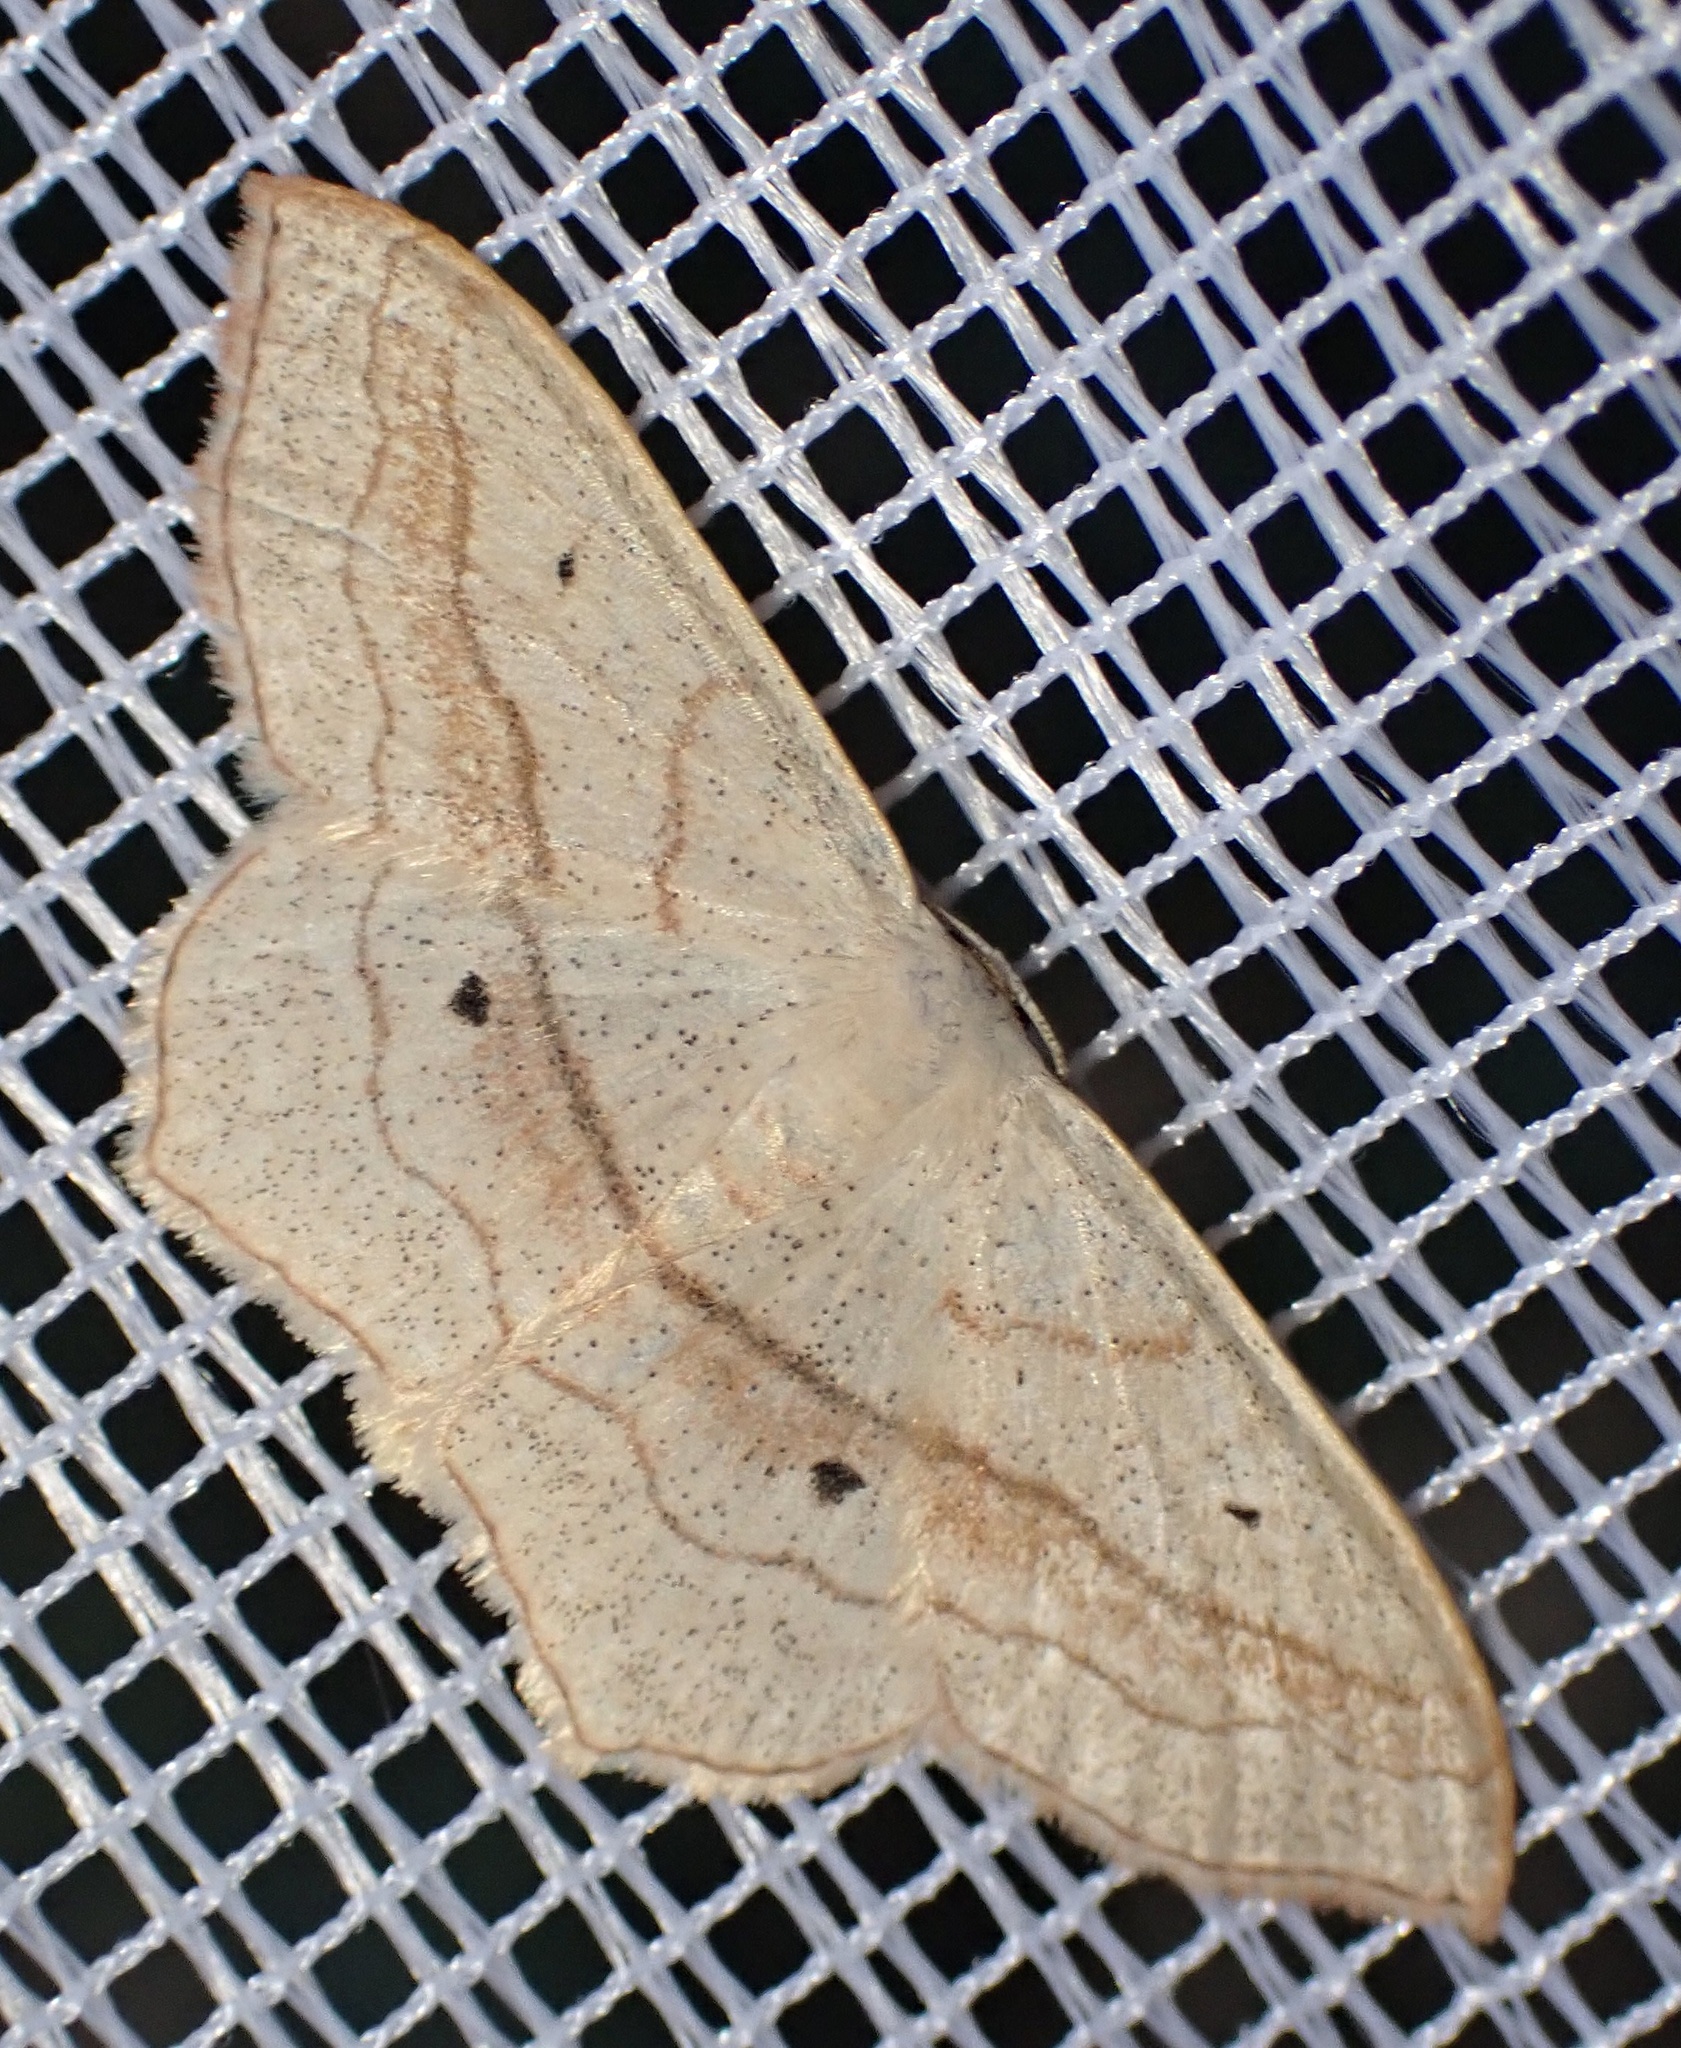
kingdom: Animalia
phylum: Arthropoda
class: Insecta
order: Lepidoptera
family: Geometridae
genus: Scopula
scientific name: Scopula imitaria
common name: Small blood-vein
